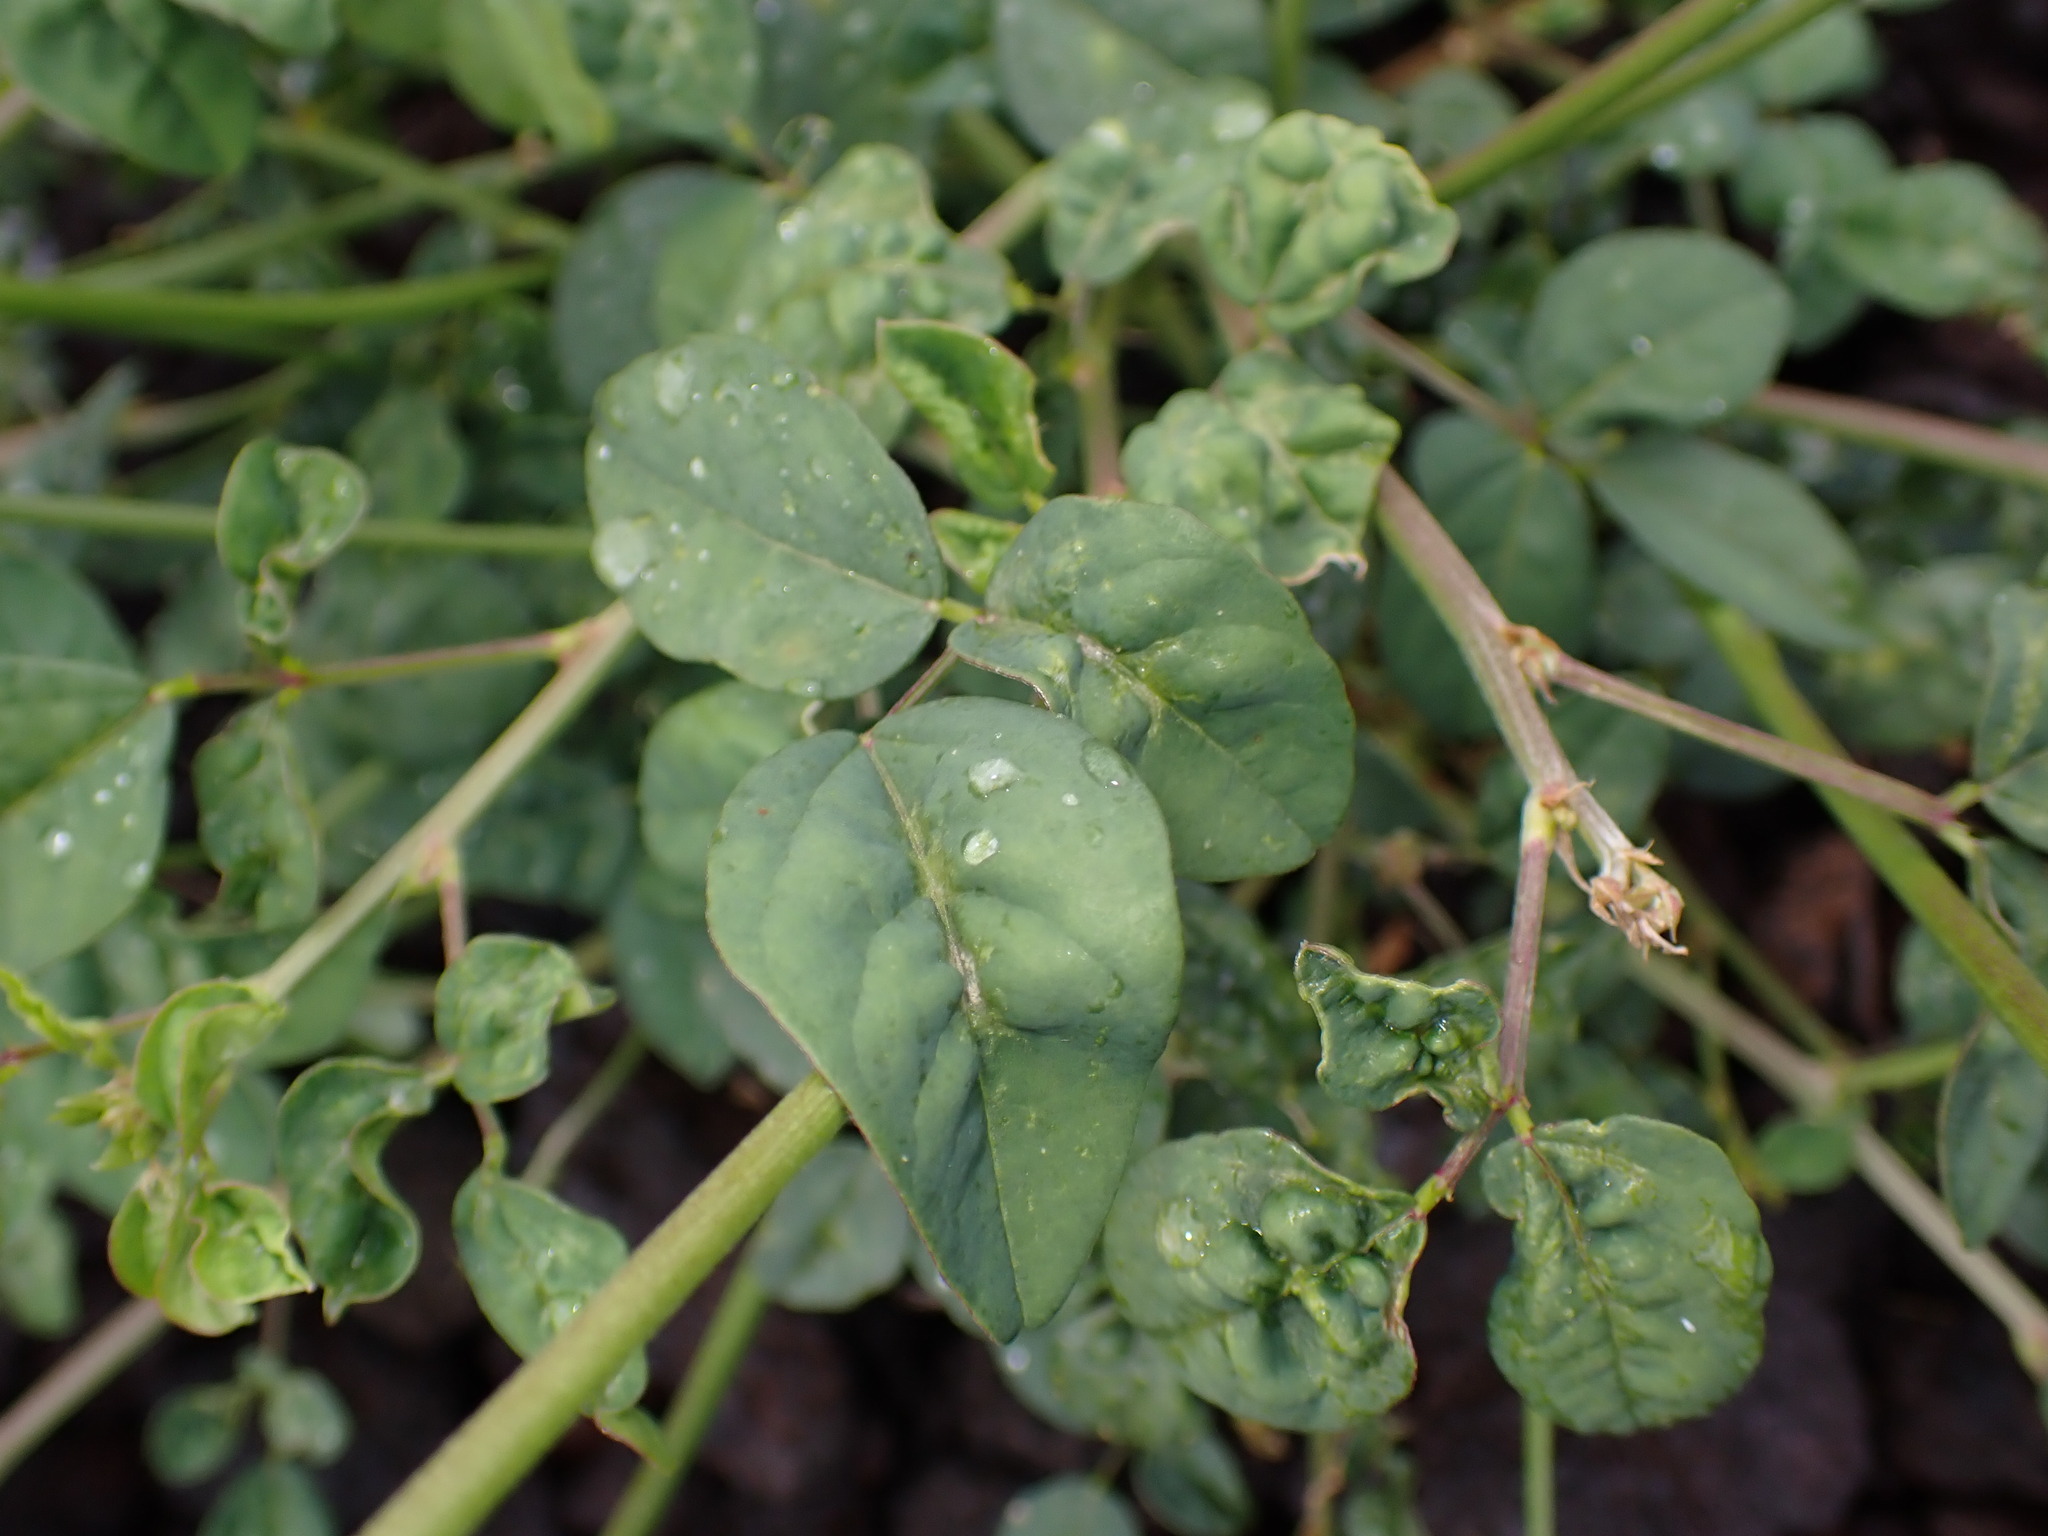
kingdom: Plantae
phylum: Tracheophyta
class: Magnoliopsida
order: Fabales
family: Fabaceae
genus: Macroptilium
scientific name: Macroptilium lathyroides
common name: Wild bushbean
